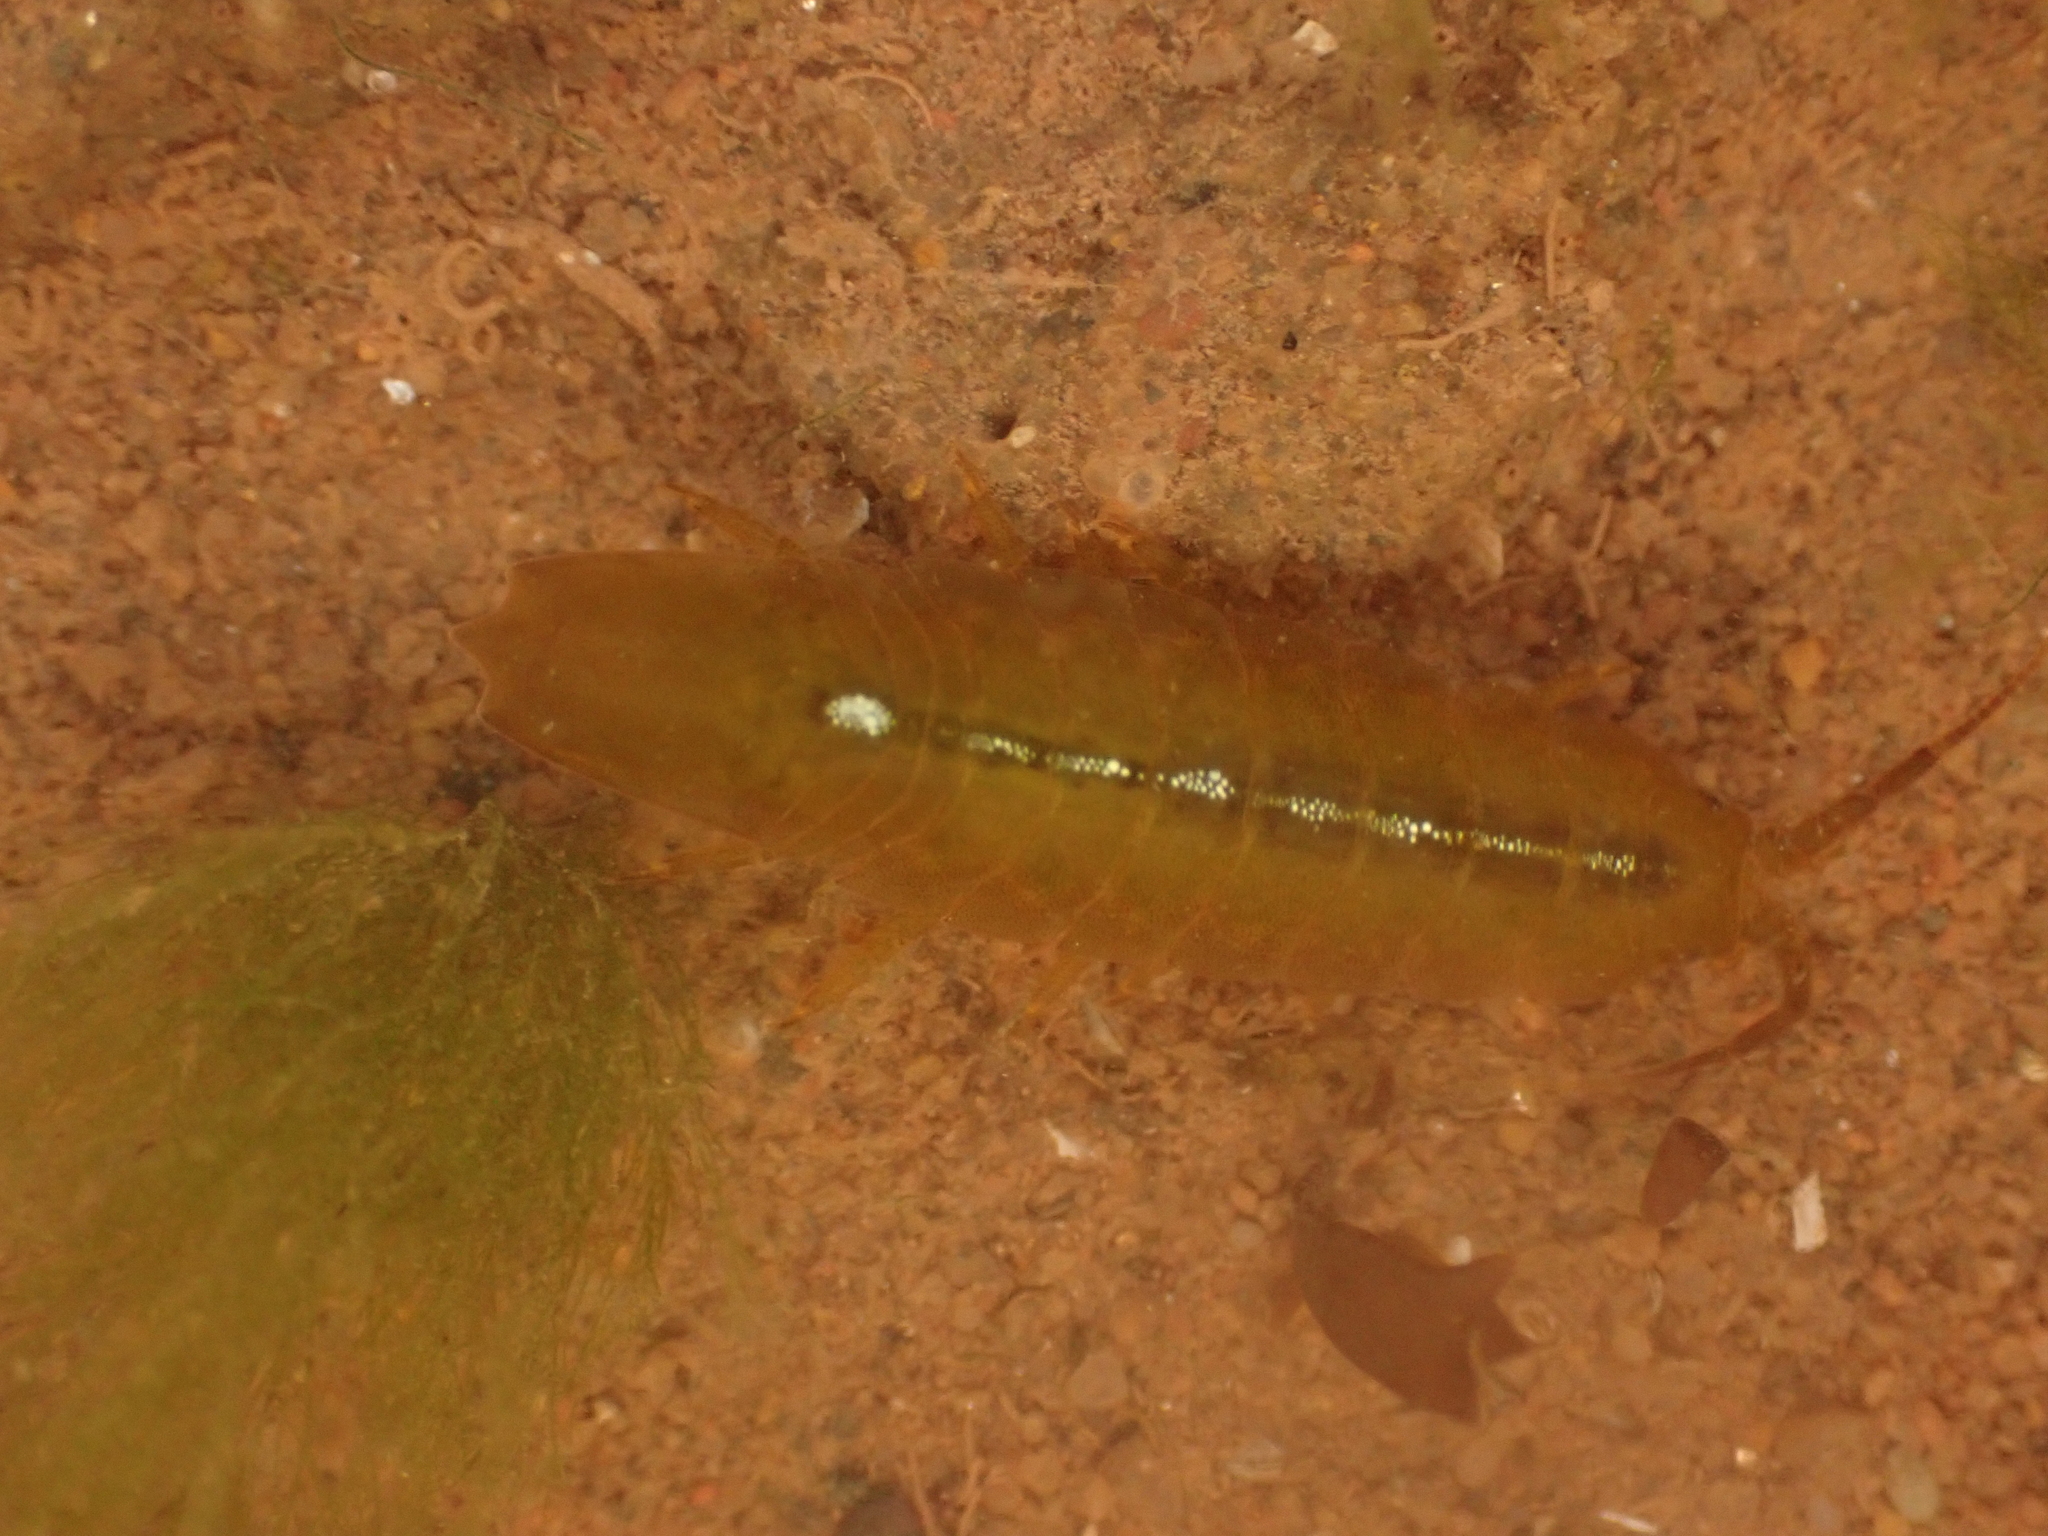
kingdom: Animalia
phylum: Arthropoda
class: Malacostraca
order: Isopoda
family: Idoteidae
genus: Idotea
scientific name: Idotea balthica
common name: Baltic isopod
